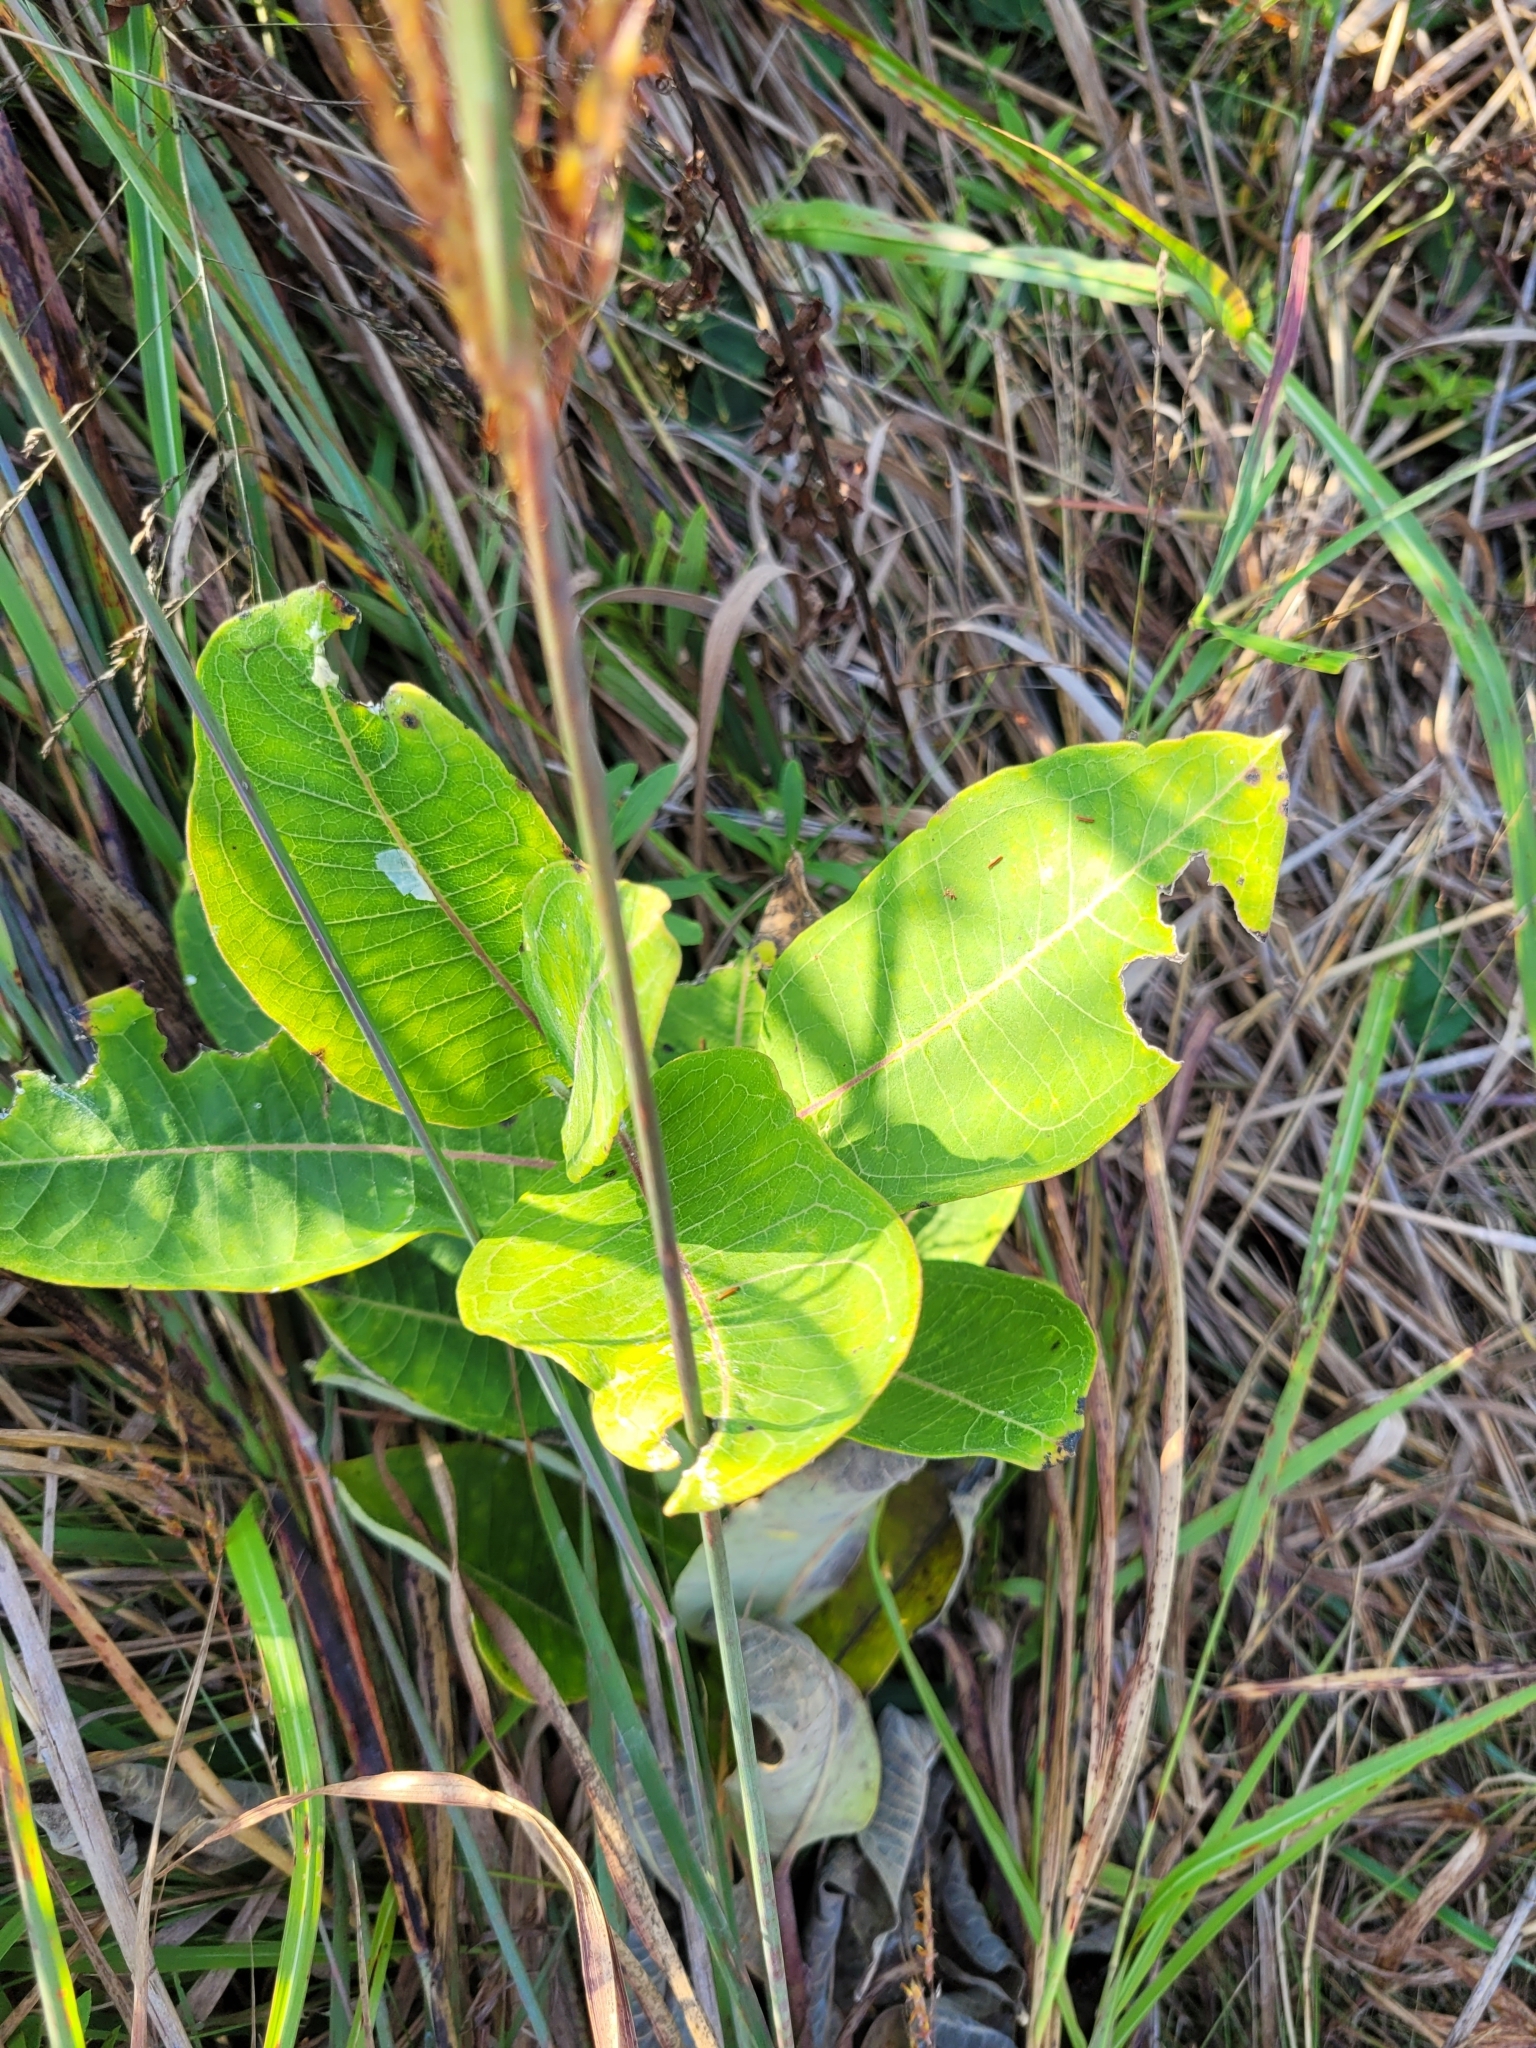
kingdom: Plantae
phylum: Tracheophyta
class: Magnoliopsida
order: Gentianales
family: Apocynaceae
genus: Asclepias
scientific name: Asclepias syriaca
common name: Common milkweed
